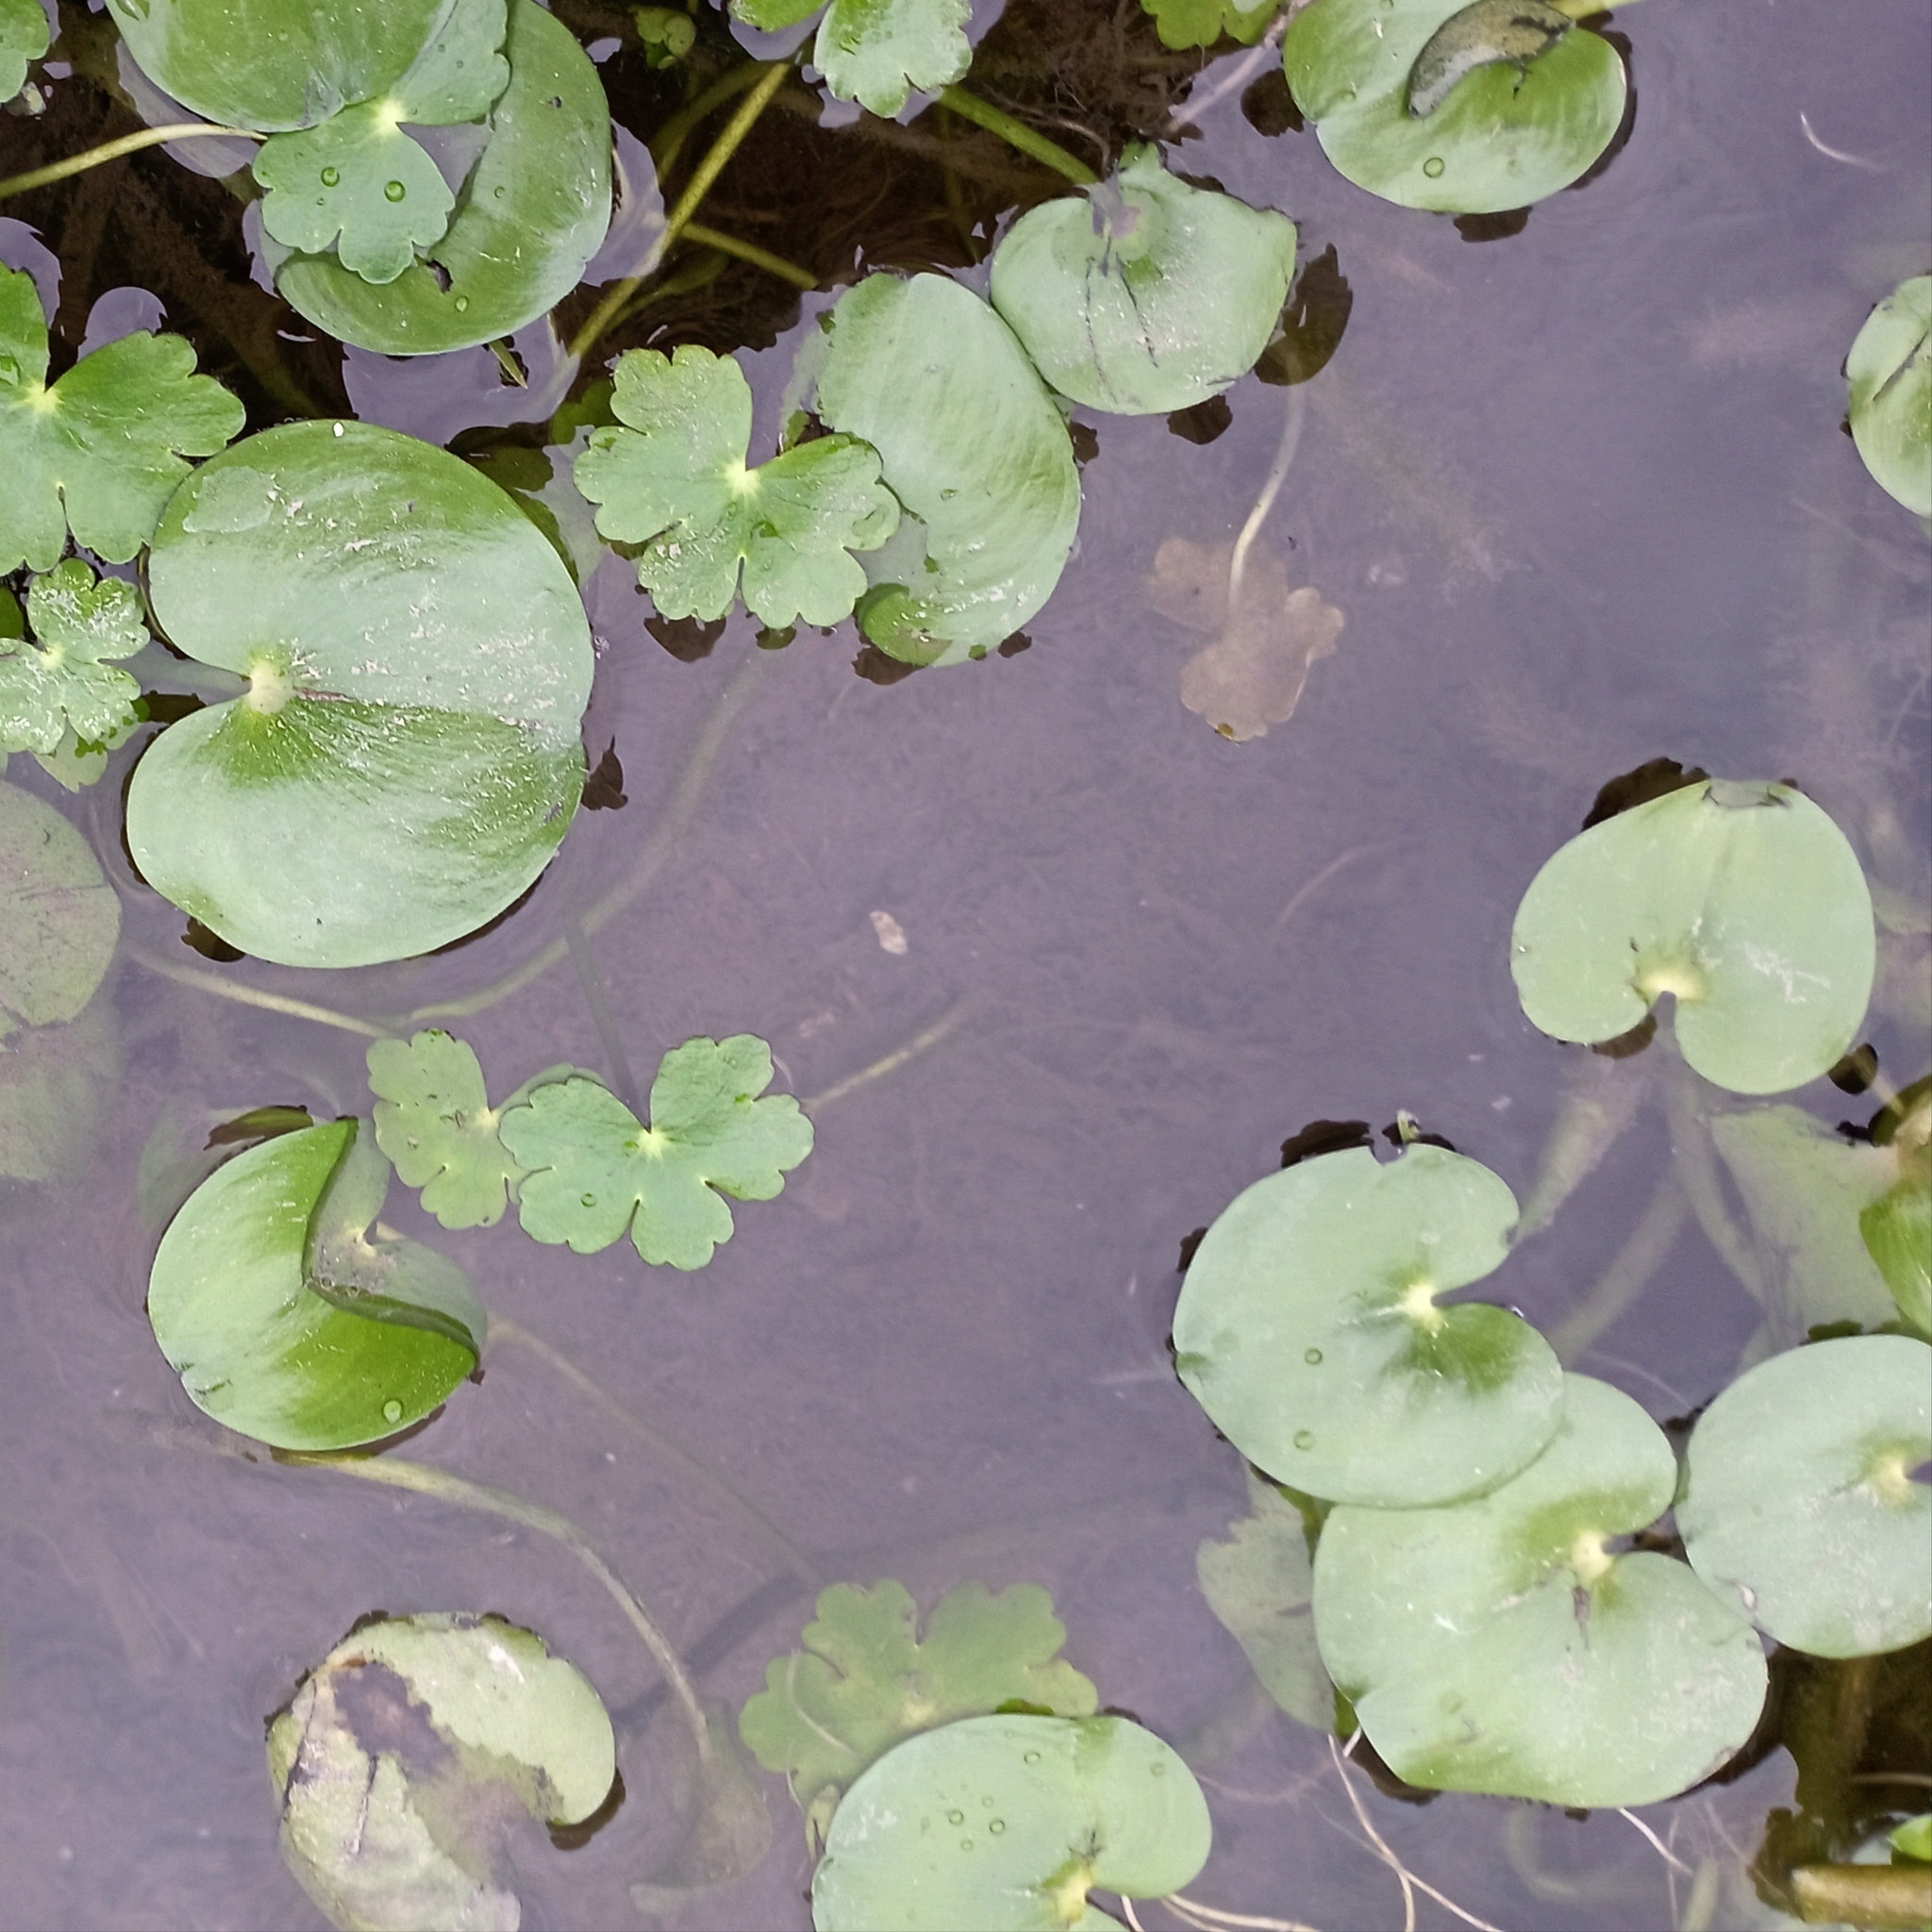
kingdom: Plantae
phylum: Tracheophyta
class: Liliopsida
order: Commelinales
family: Pontederiaceae
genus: Heteranthera
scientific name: Heteranthera reniformis
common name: Kidneyleaf mudplantain
